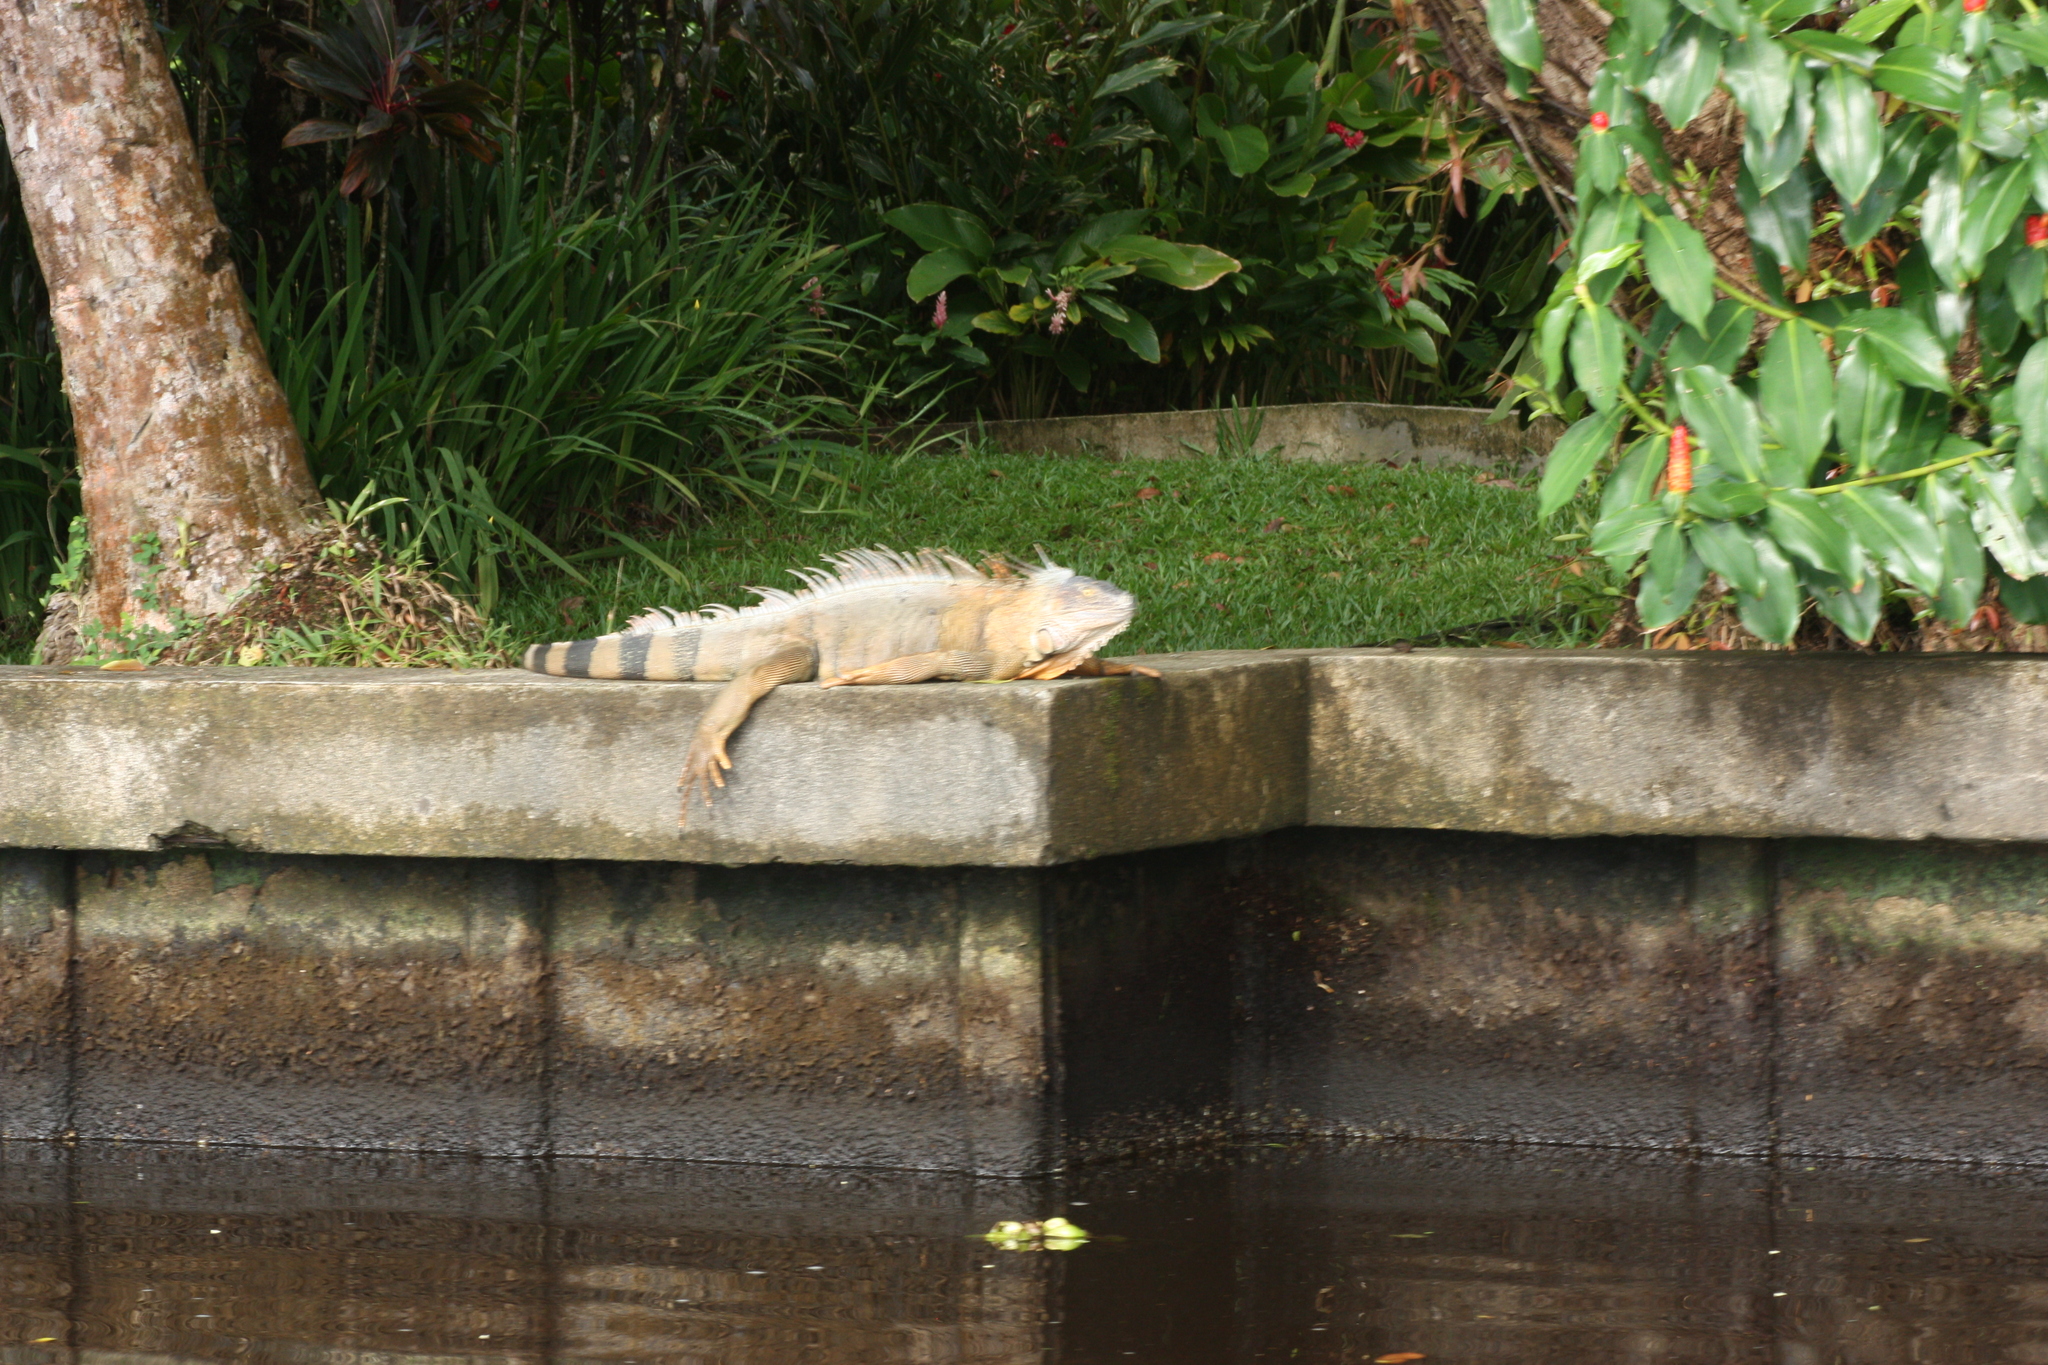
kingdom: Animalia
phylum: Chordata
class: Squamata
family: Iguanidae
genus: Iguana
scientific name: Iguana iguana
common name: Green iguana
